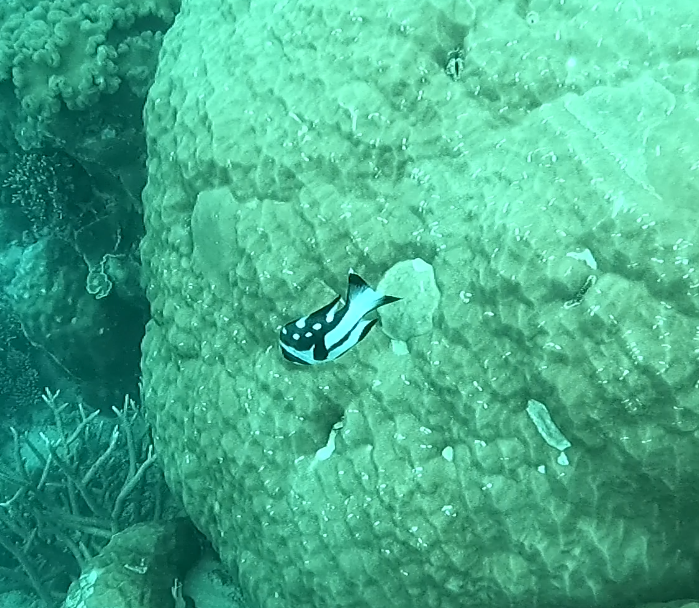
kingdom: Animalia
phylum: Chordata
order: Perciformes
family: Lutjanidae
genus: Macolor
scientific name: Macolor niger
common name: Black snapper
